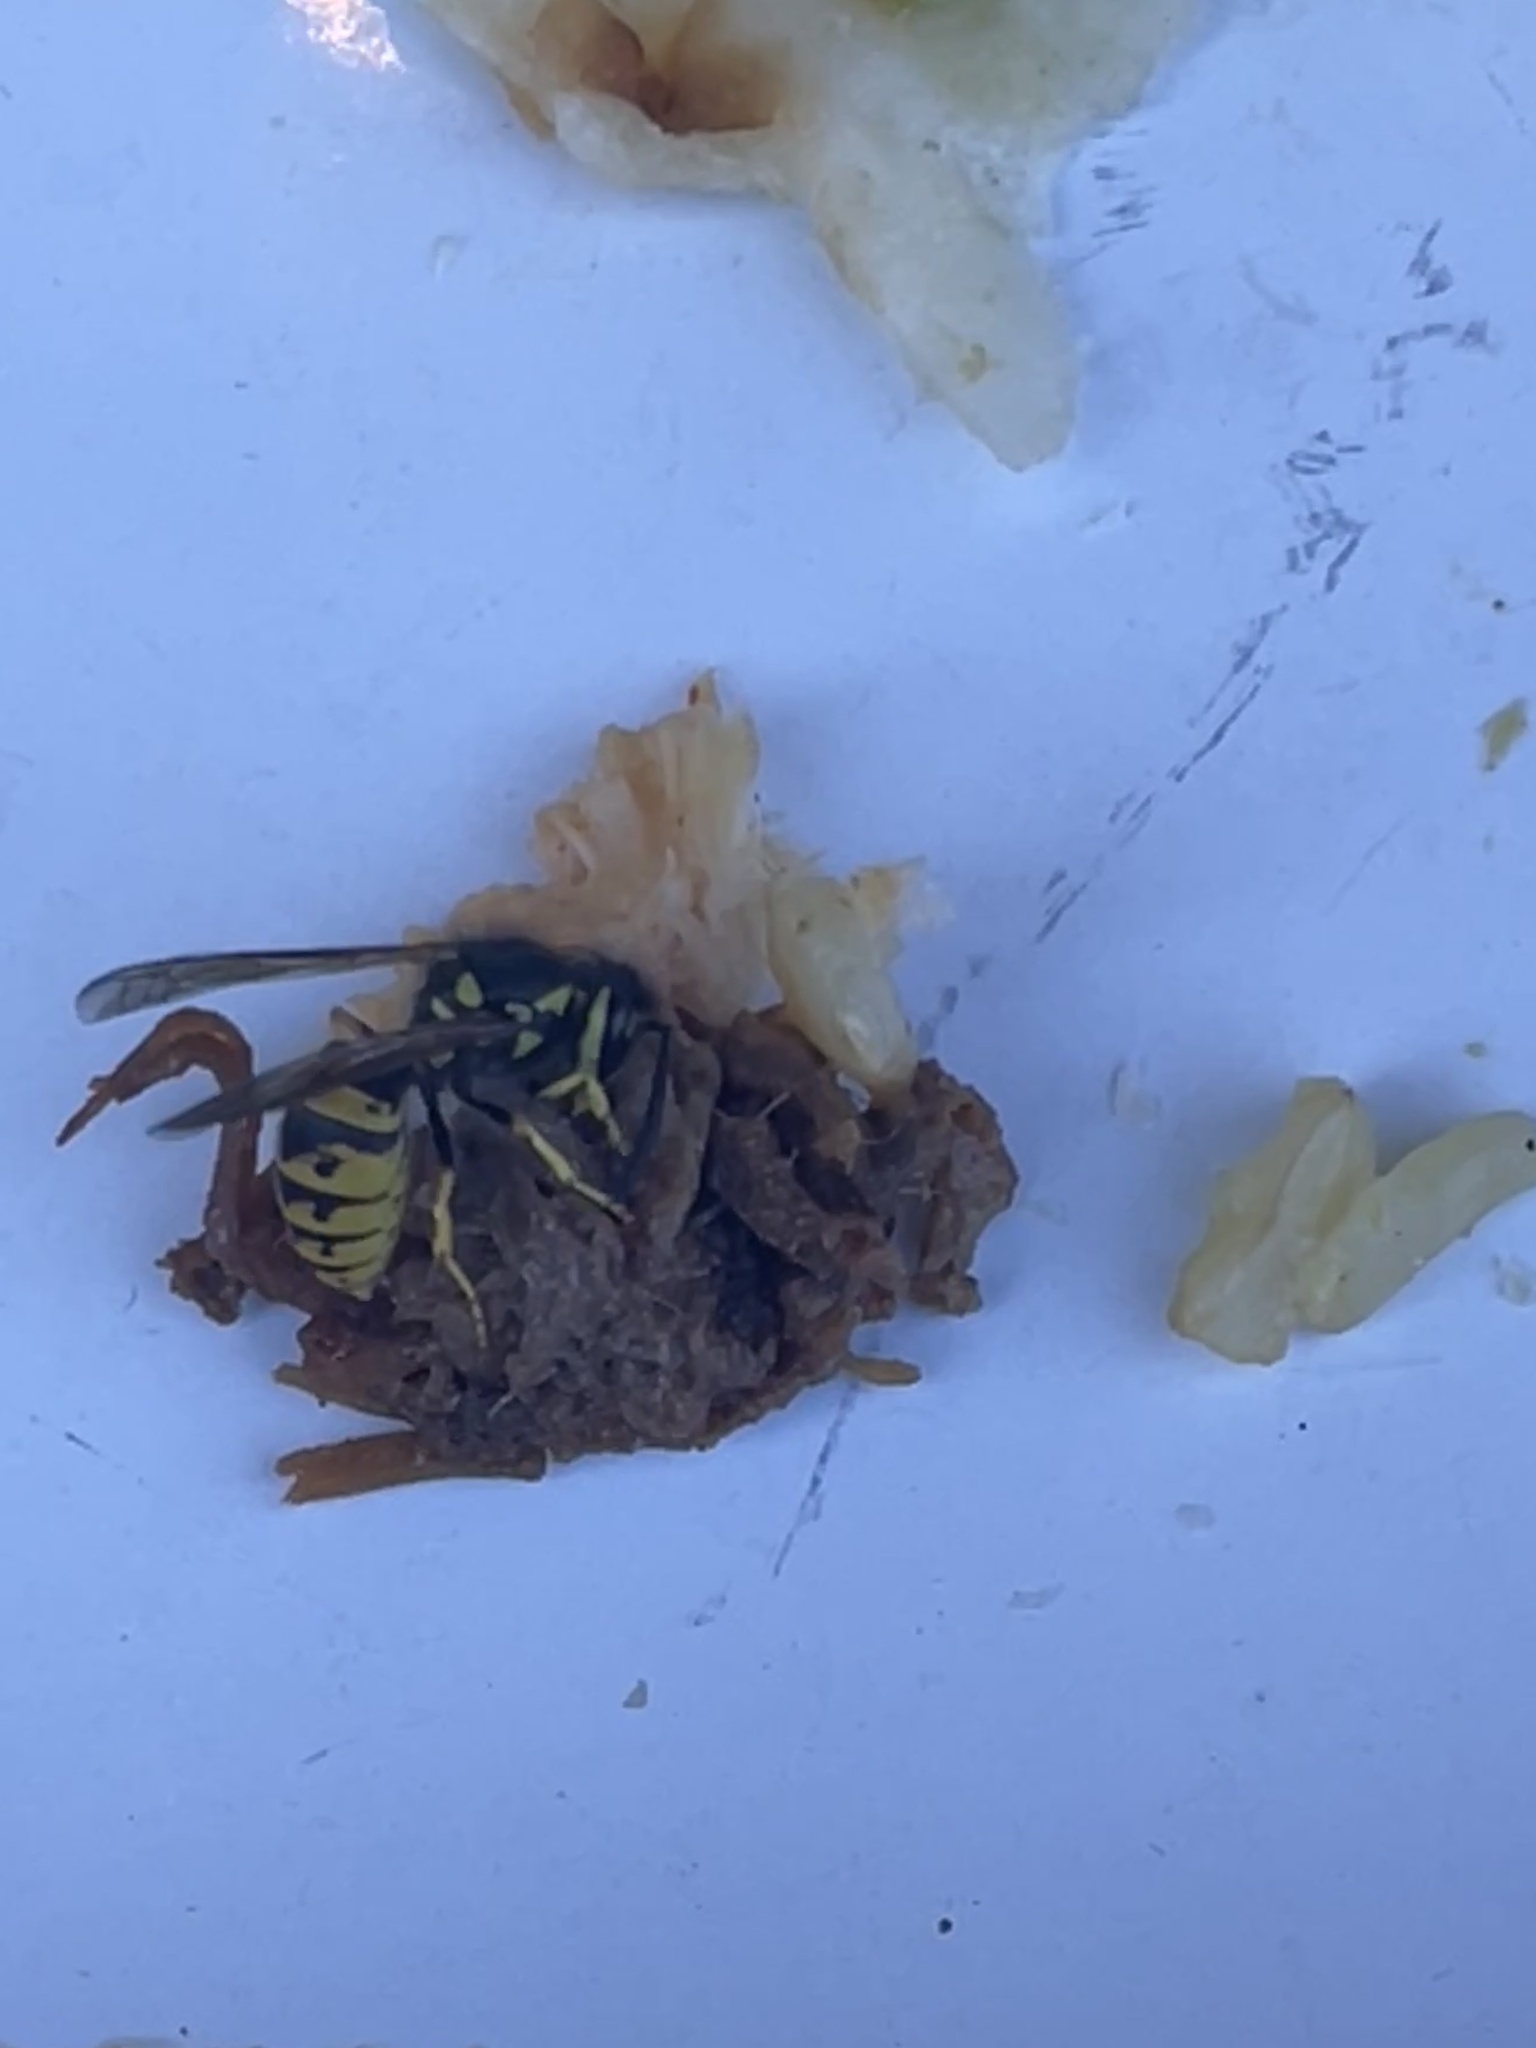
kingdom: Animalia
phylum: Arthropoda
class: Insecta
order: Hymenoptera
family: Vespidae
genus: Vespula
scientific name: Vespula germanica
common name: German wasp
